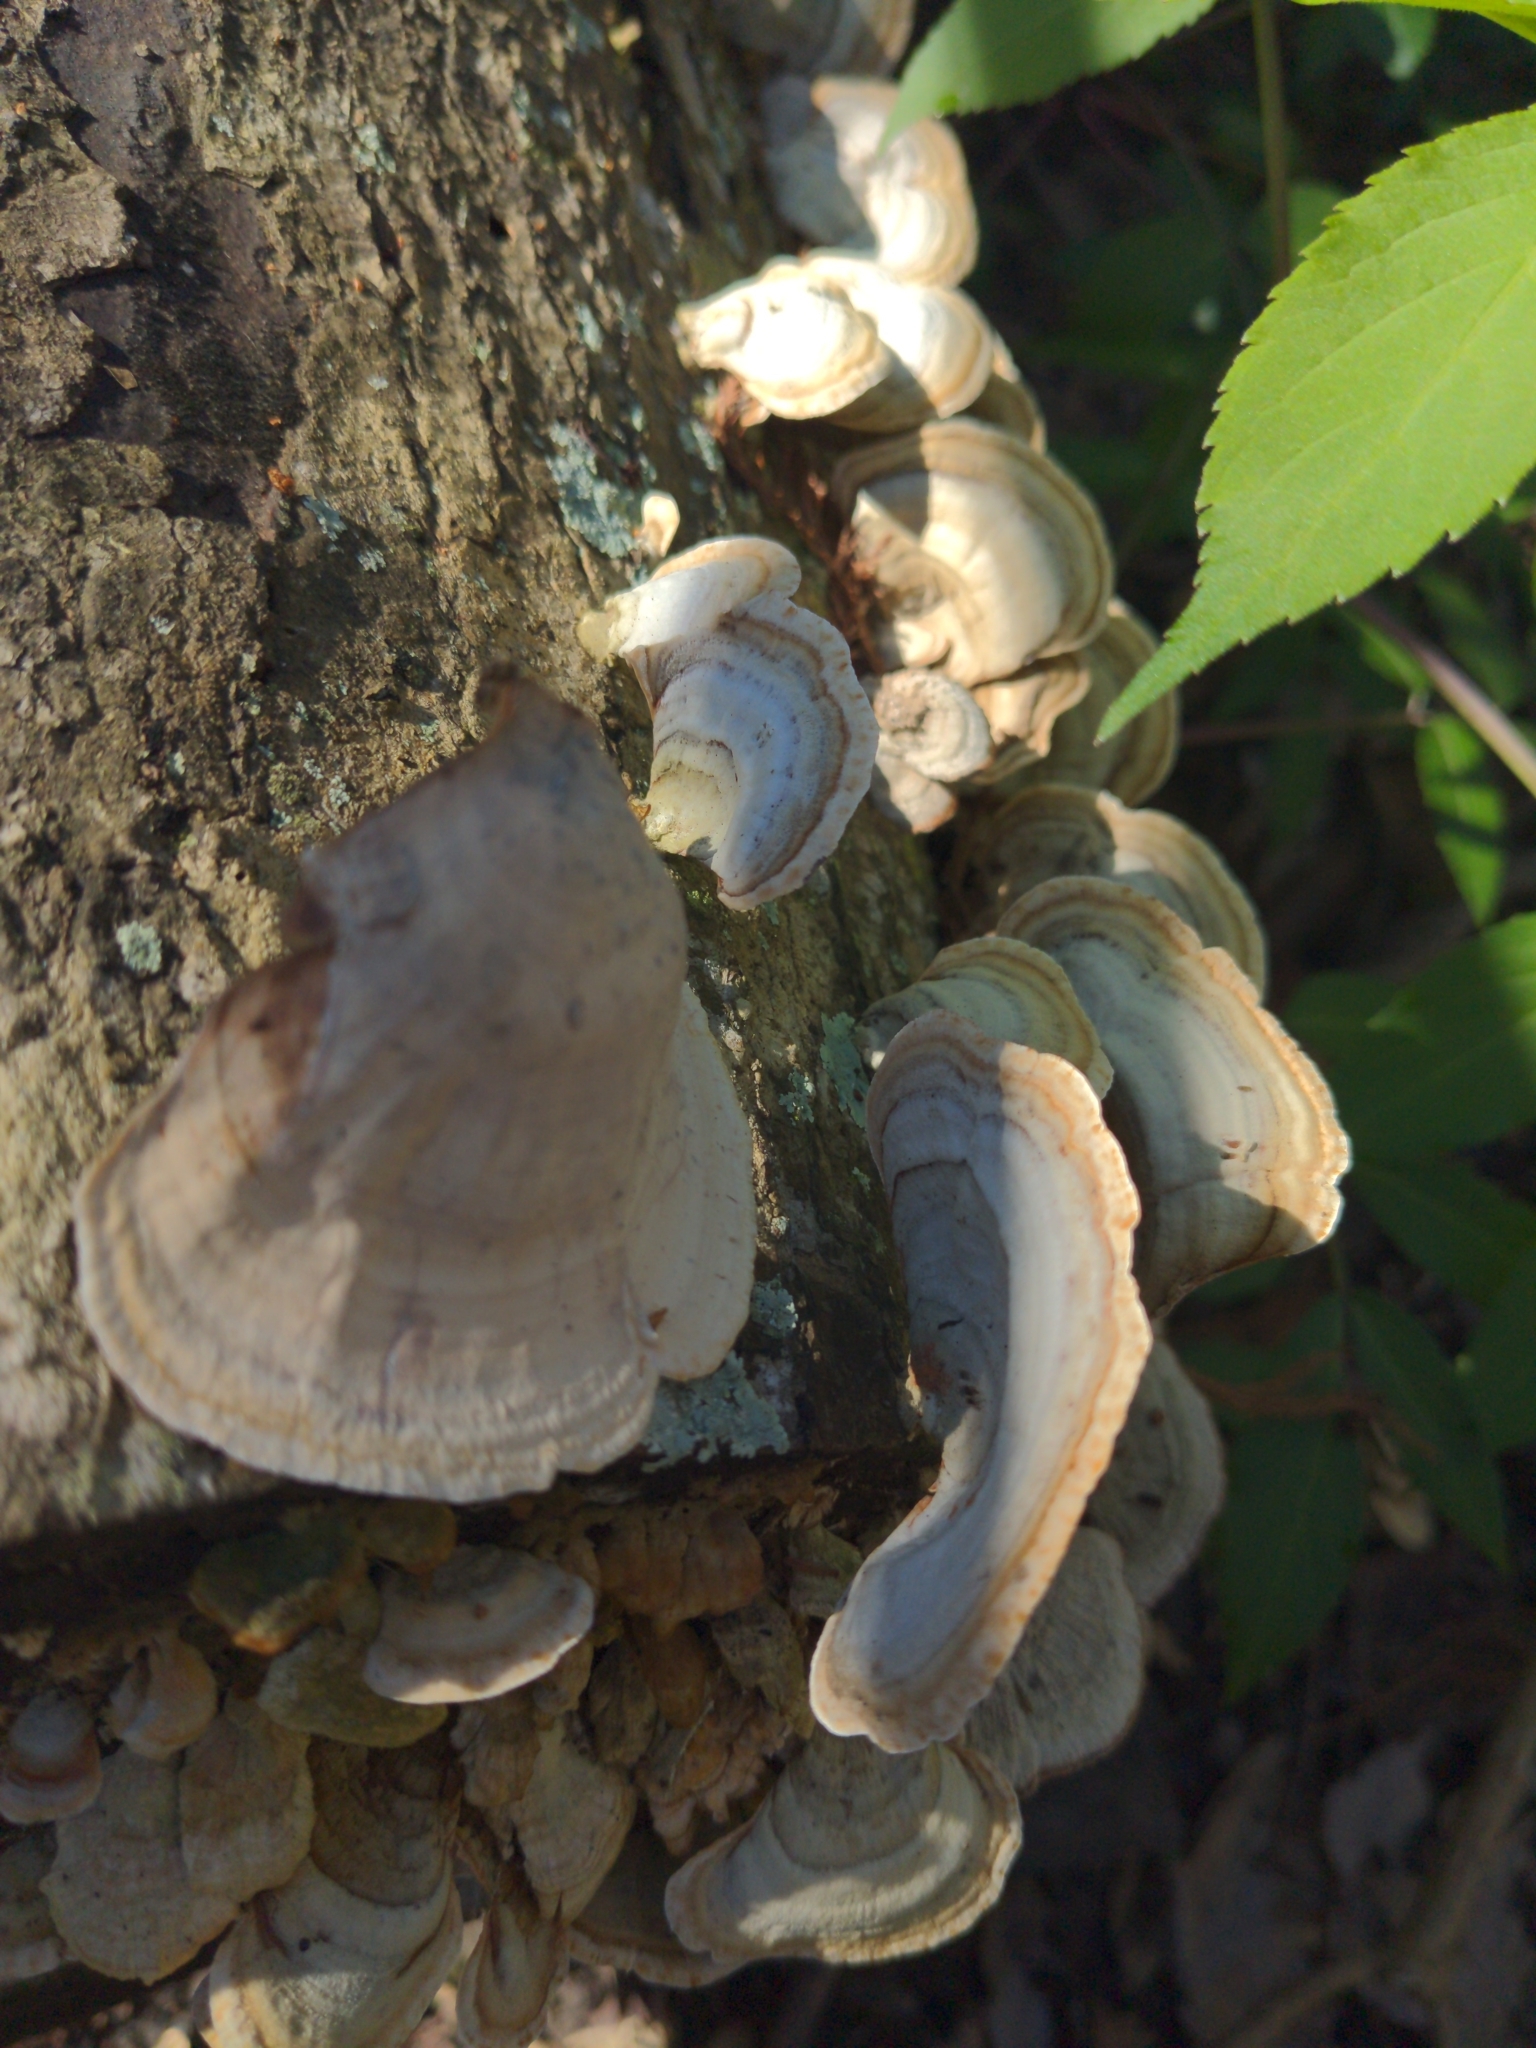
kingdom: Fungi
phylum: Basidiomycota
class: Agaricomycetes
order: Russulales
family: Stereaceae
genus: Stereum
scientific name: Stereum ostrea
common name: False turkeytail
